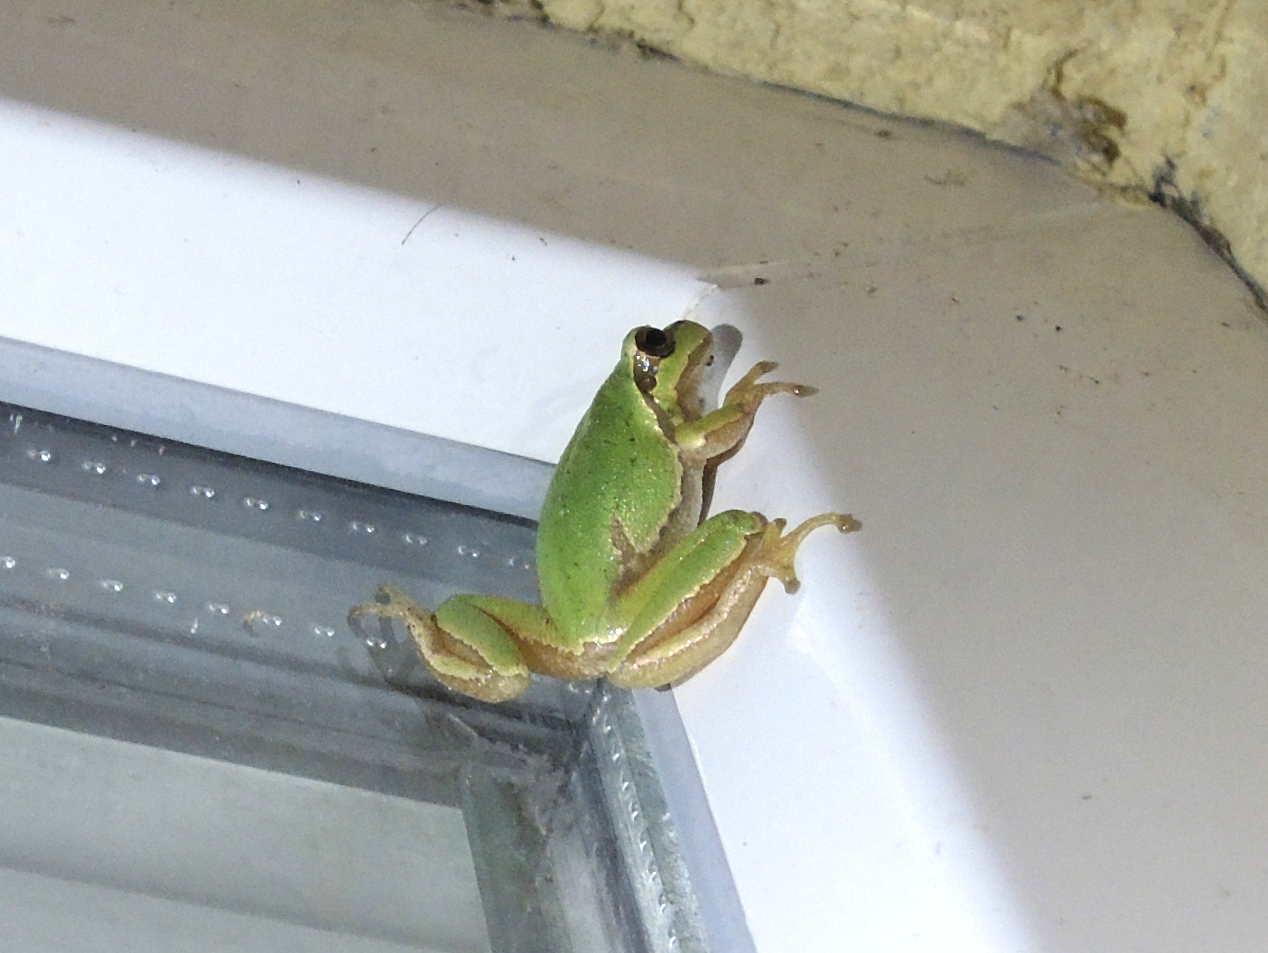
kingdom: Animalia
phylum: Chordata
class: Amphibia
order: Anura
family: Hylidae
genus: Hyla
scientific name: Hyla orientalis
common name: Caucasian treefrog
